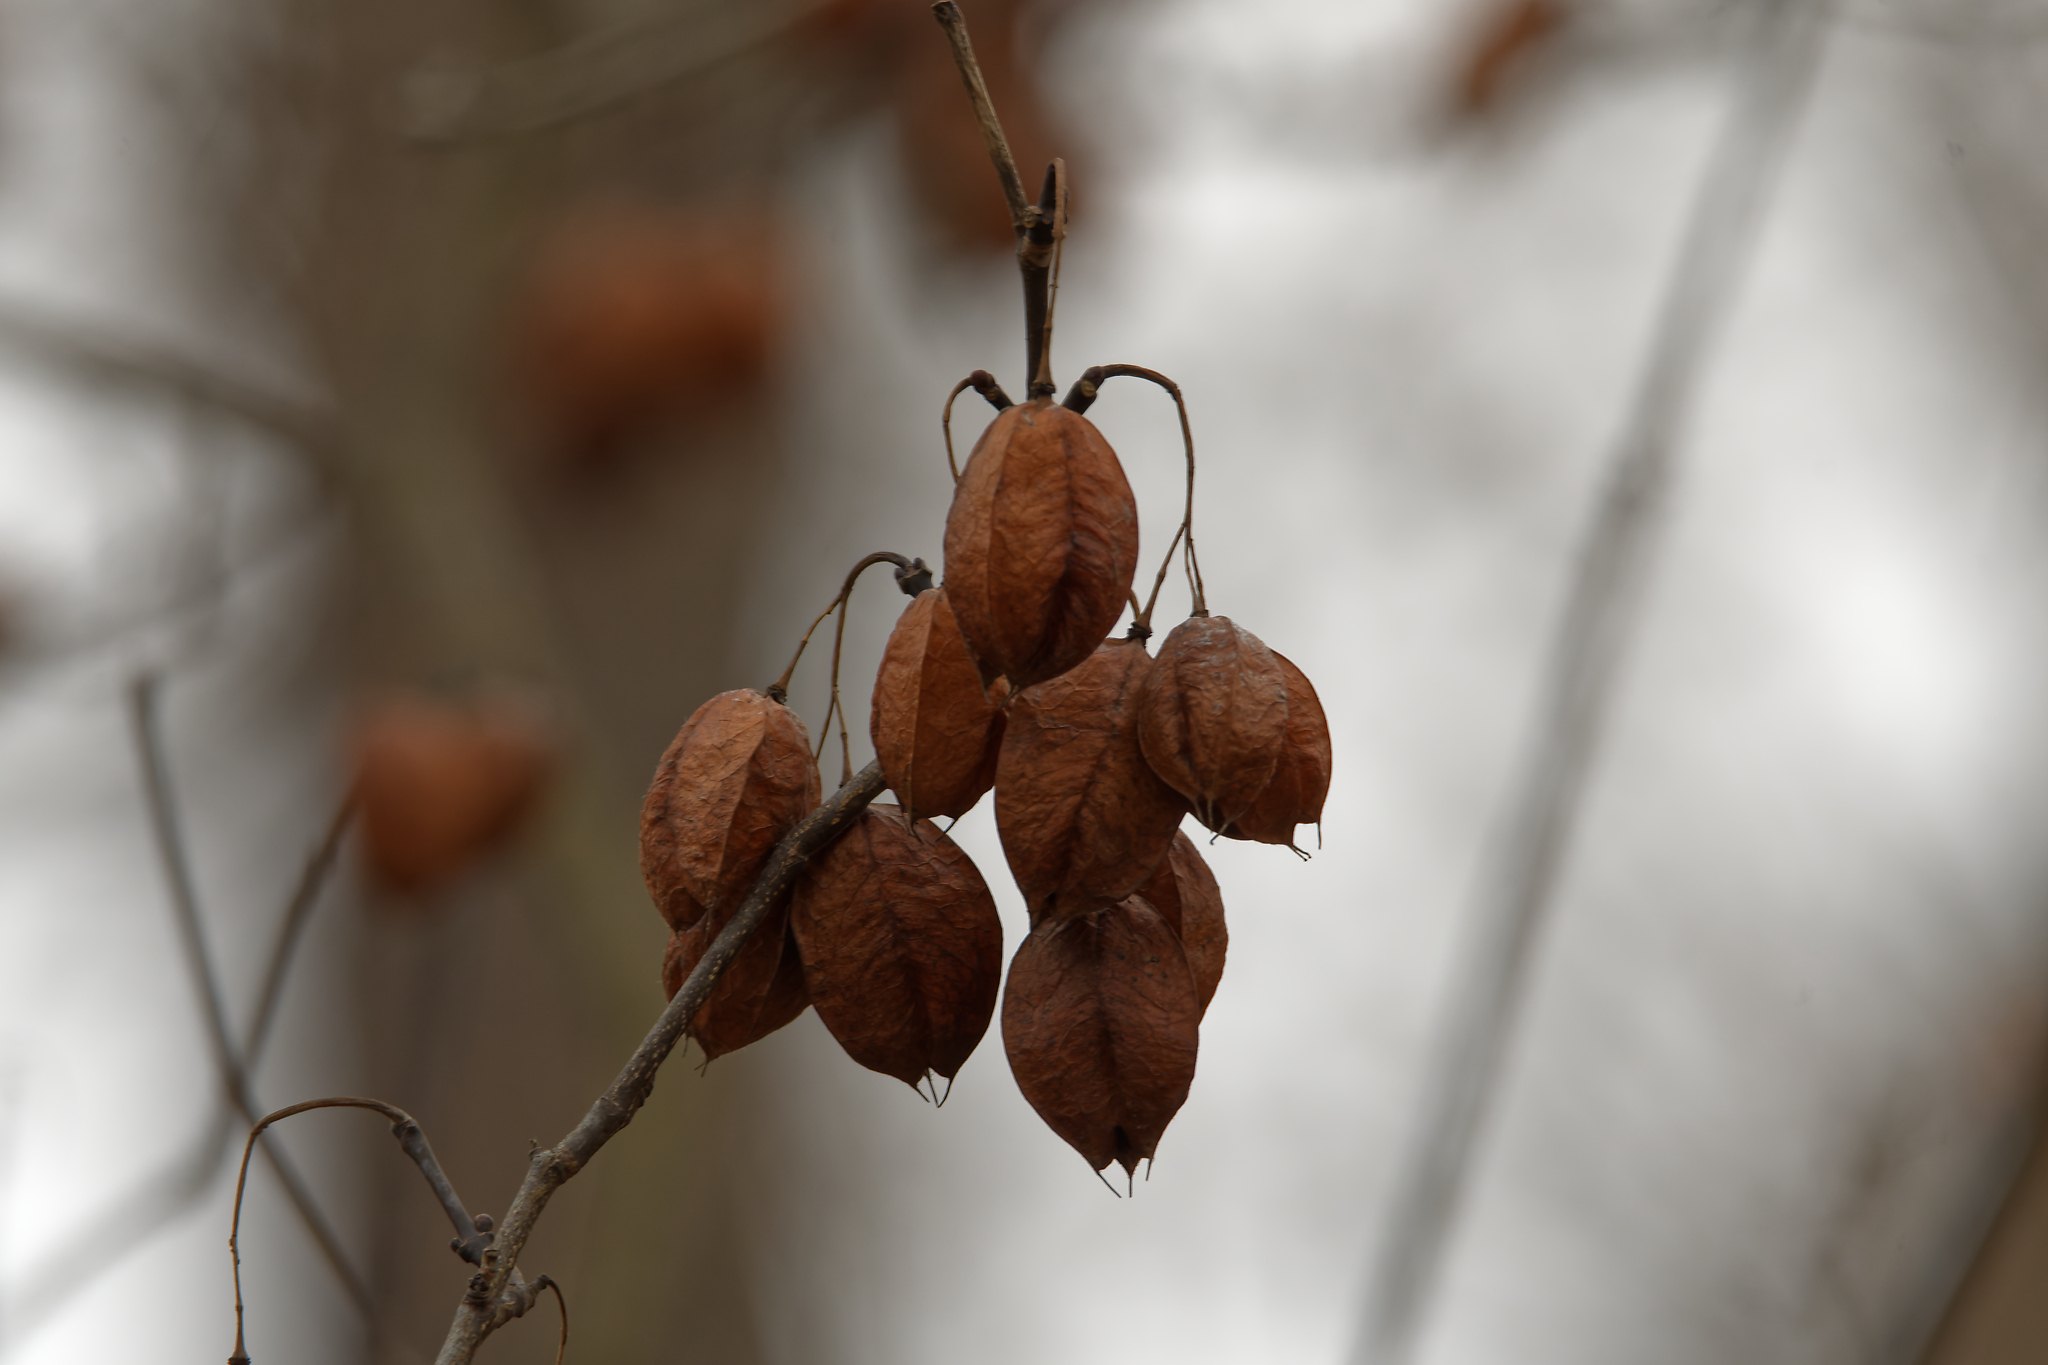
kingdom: Plantae
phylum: Tracheophyta
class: Magnoliopsida
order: Crossosomatales
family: Staphyleaceae
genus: Staphylea
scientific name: Staphylea trifolia
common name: American bladdernut
